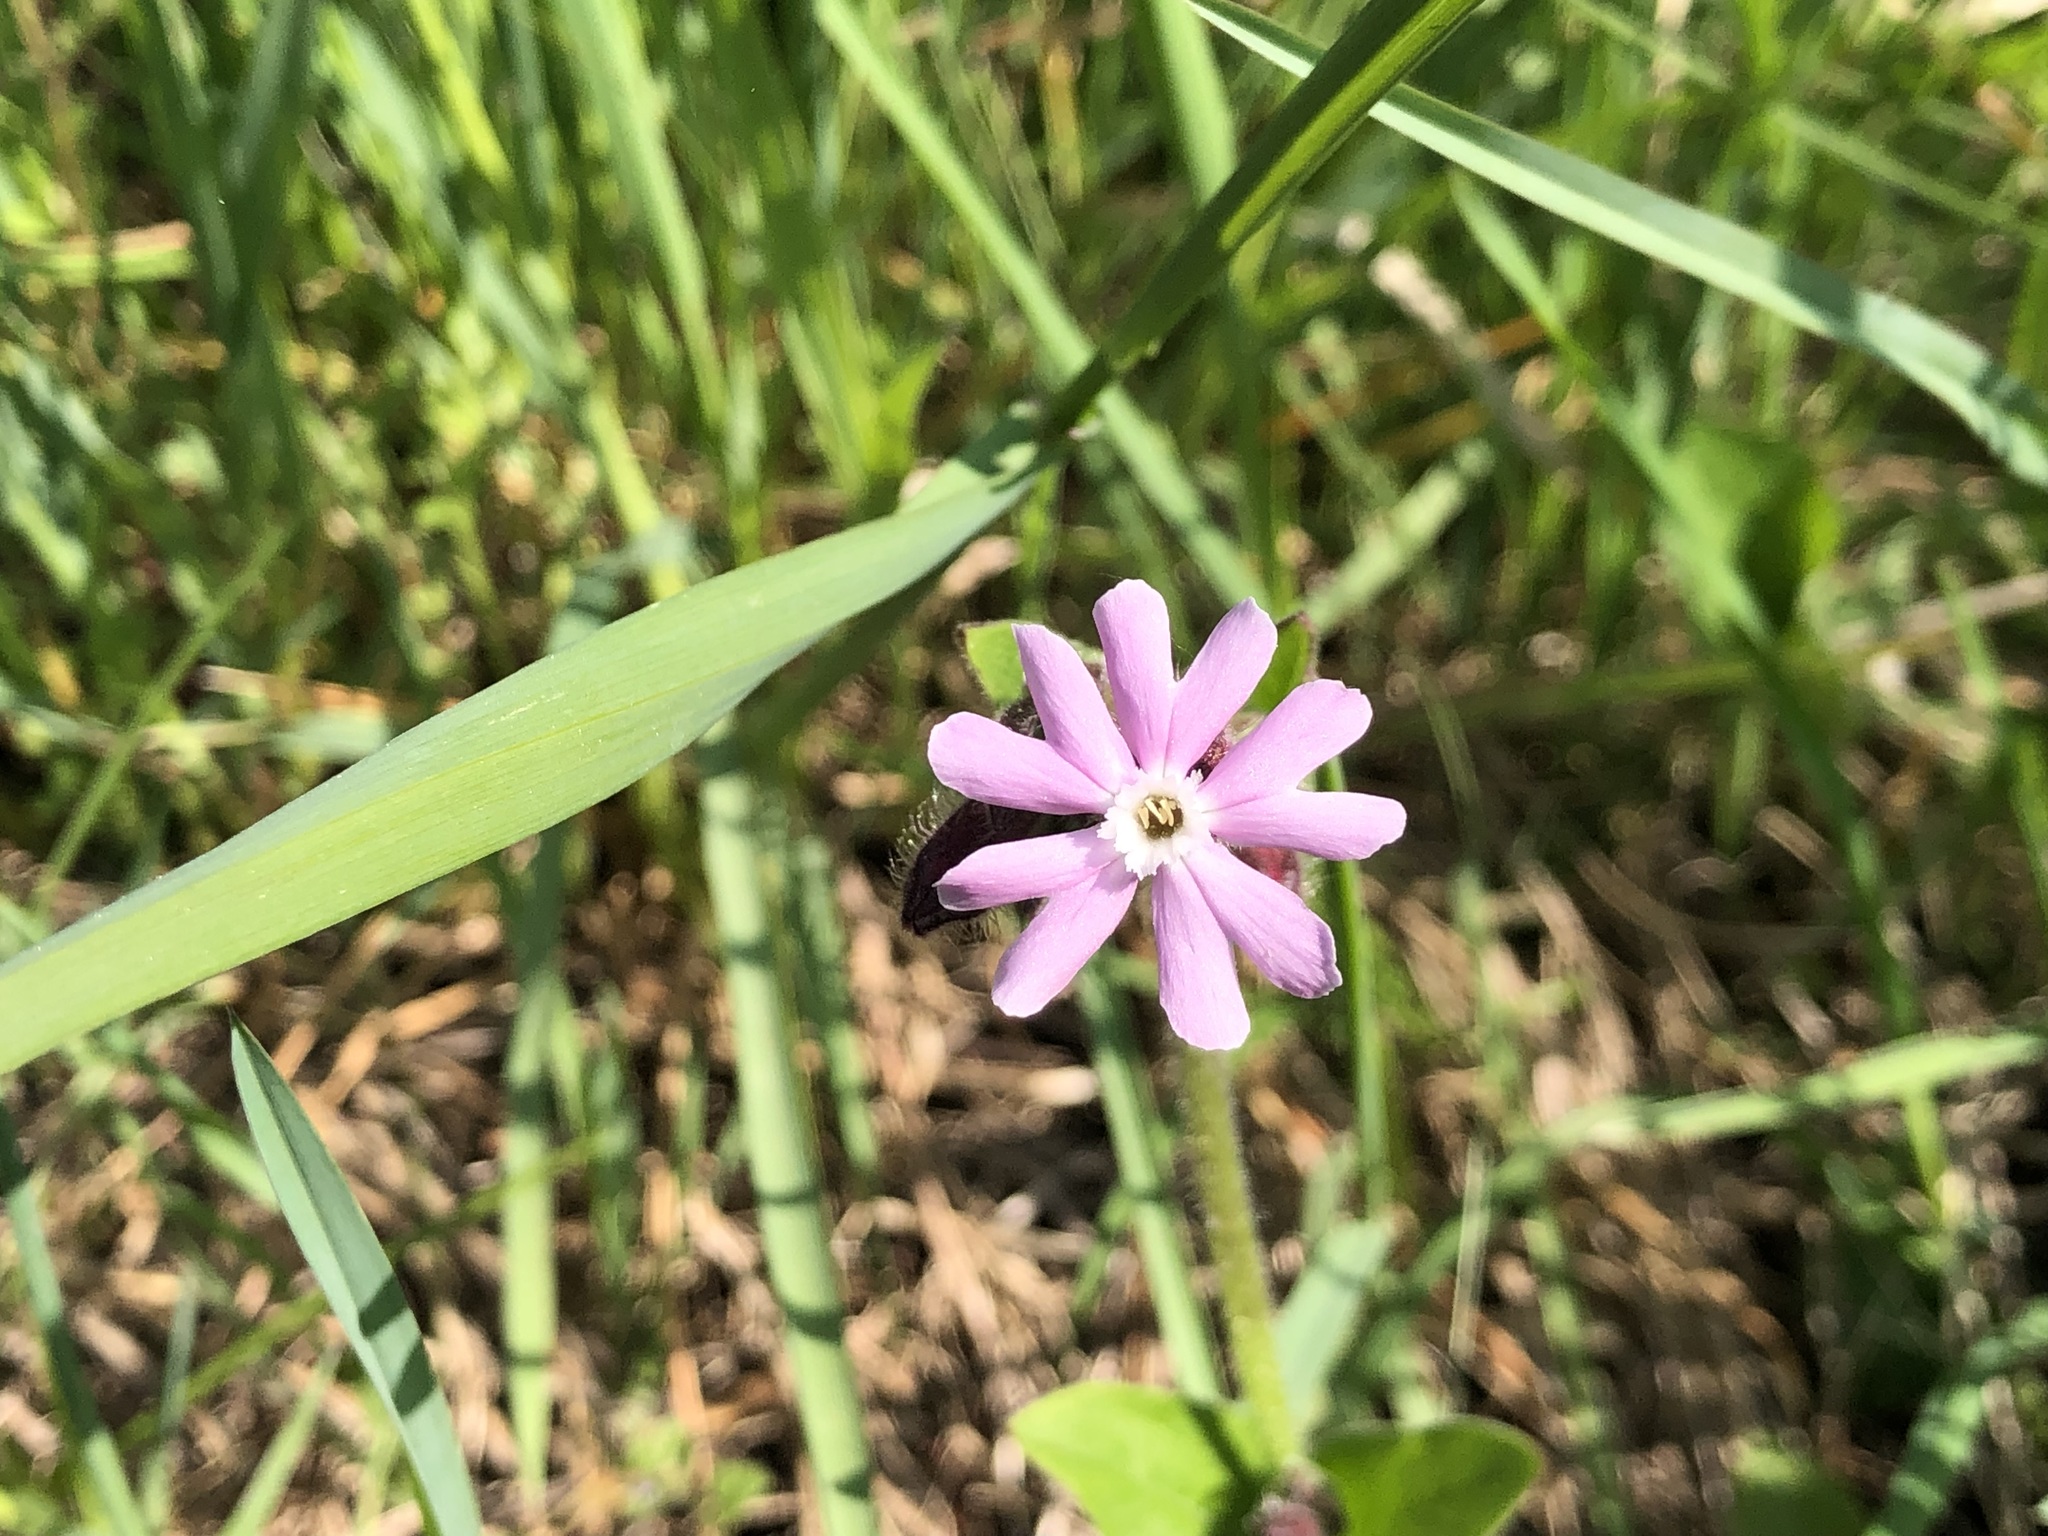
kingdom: Plantae
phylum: Tracheophyta
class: Magnoliopsida
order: Caryophyllales
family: Caryophyllaceae
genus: Silene
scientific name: Silene dioica
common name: Red campion
